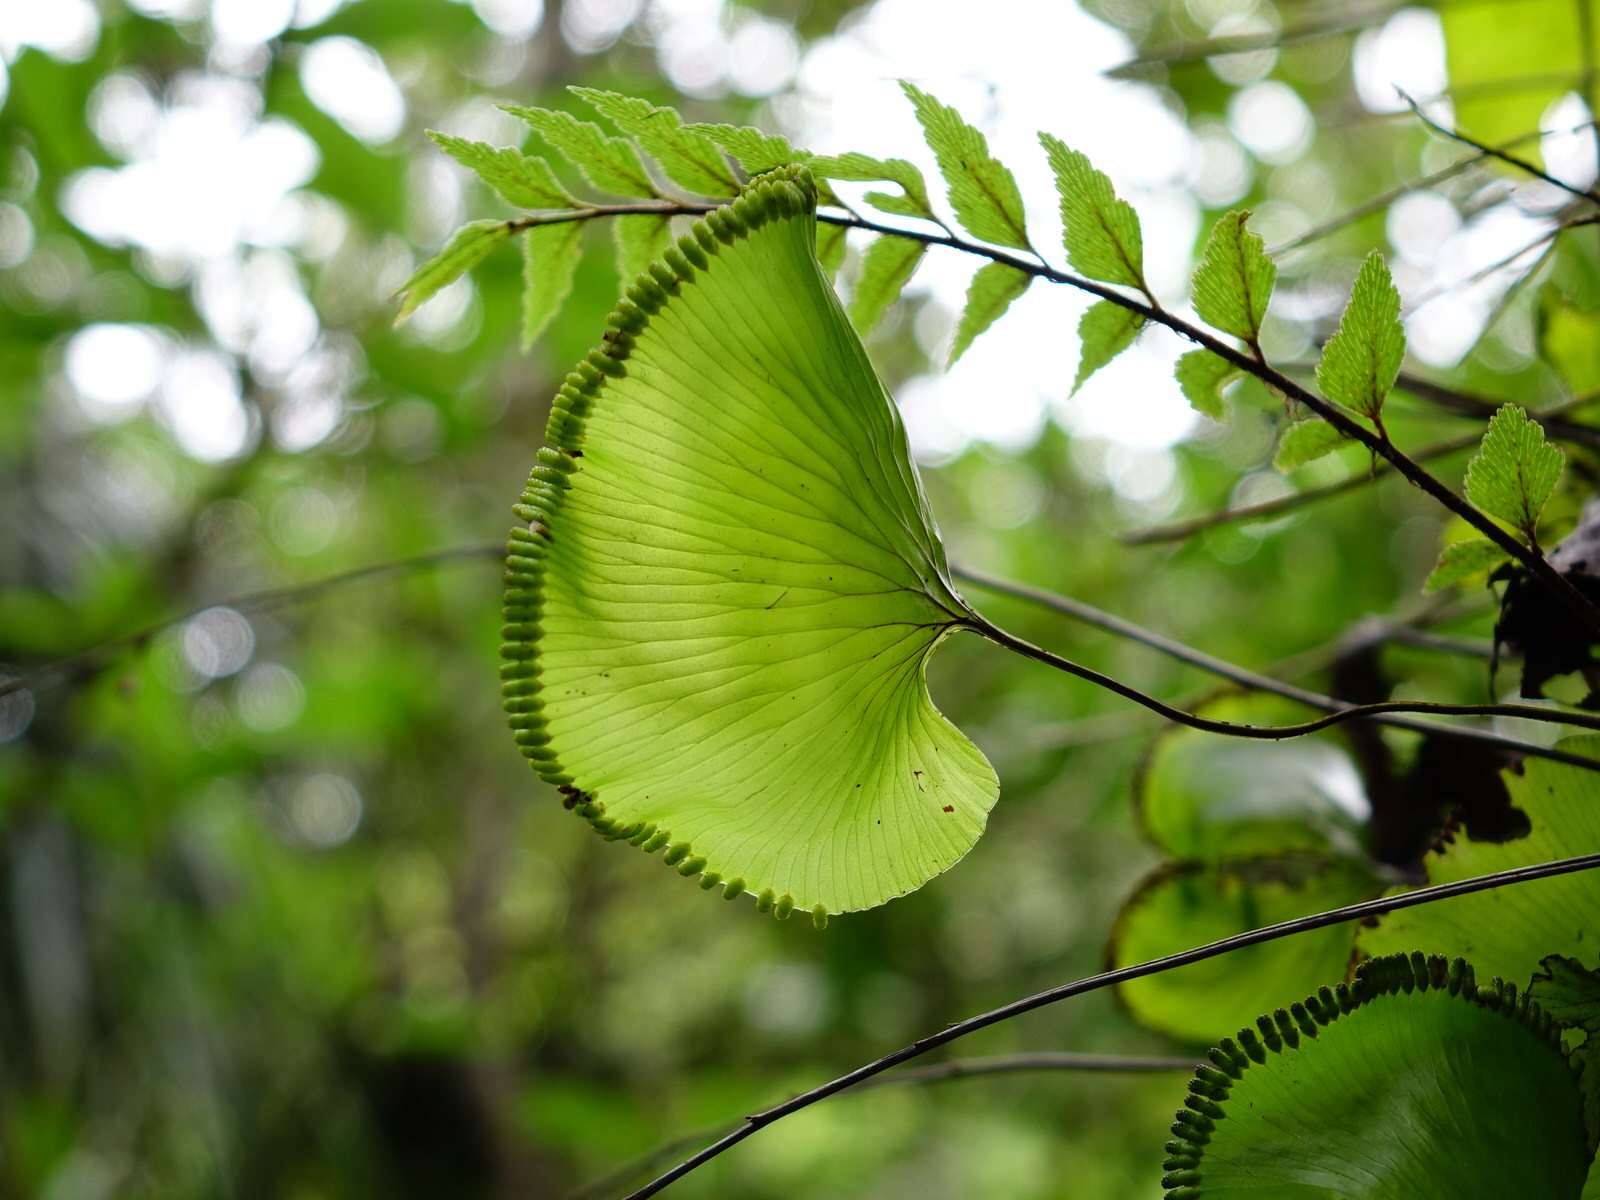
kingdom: Plantae
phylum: Tracheophyta
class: Polypodiopsida
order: Hymenophyllales
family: Hymenophyllaceae
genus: Hymenophyllum
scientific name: Hymenophyllum nephrophyllum
